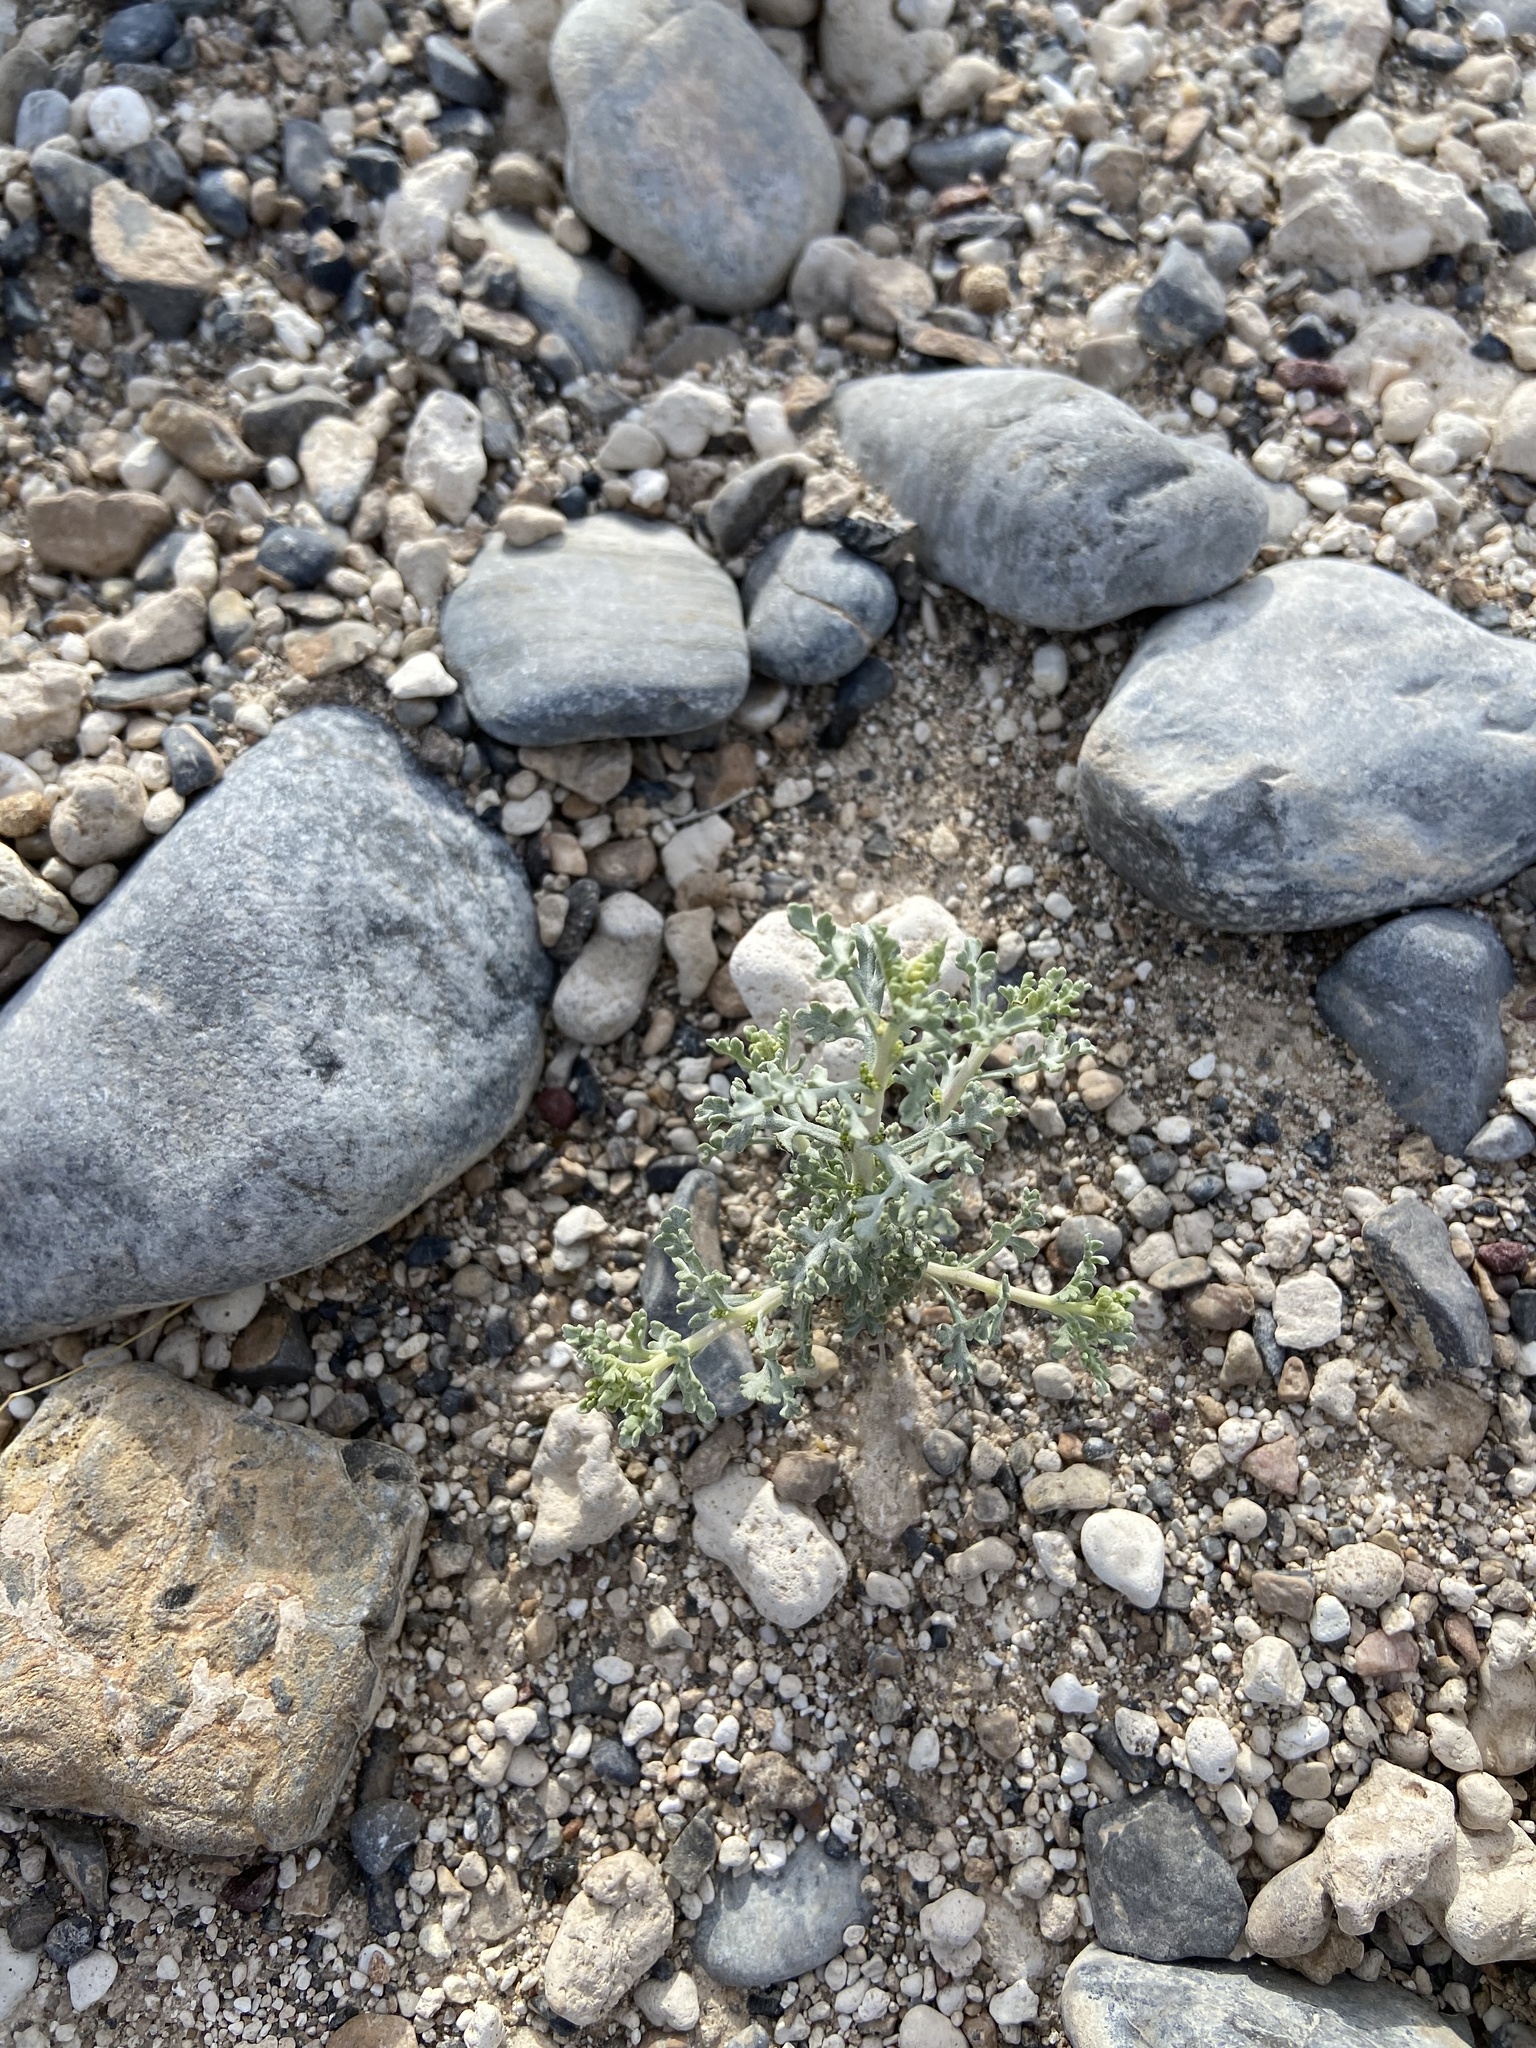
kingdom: Plantae
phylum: Tracheophyta
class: Magnoliopsida
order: Asterales
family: Asteraceae
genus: Ambrosia
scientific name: Ambrosia dumosa
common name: Bur-sage
